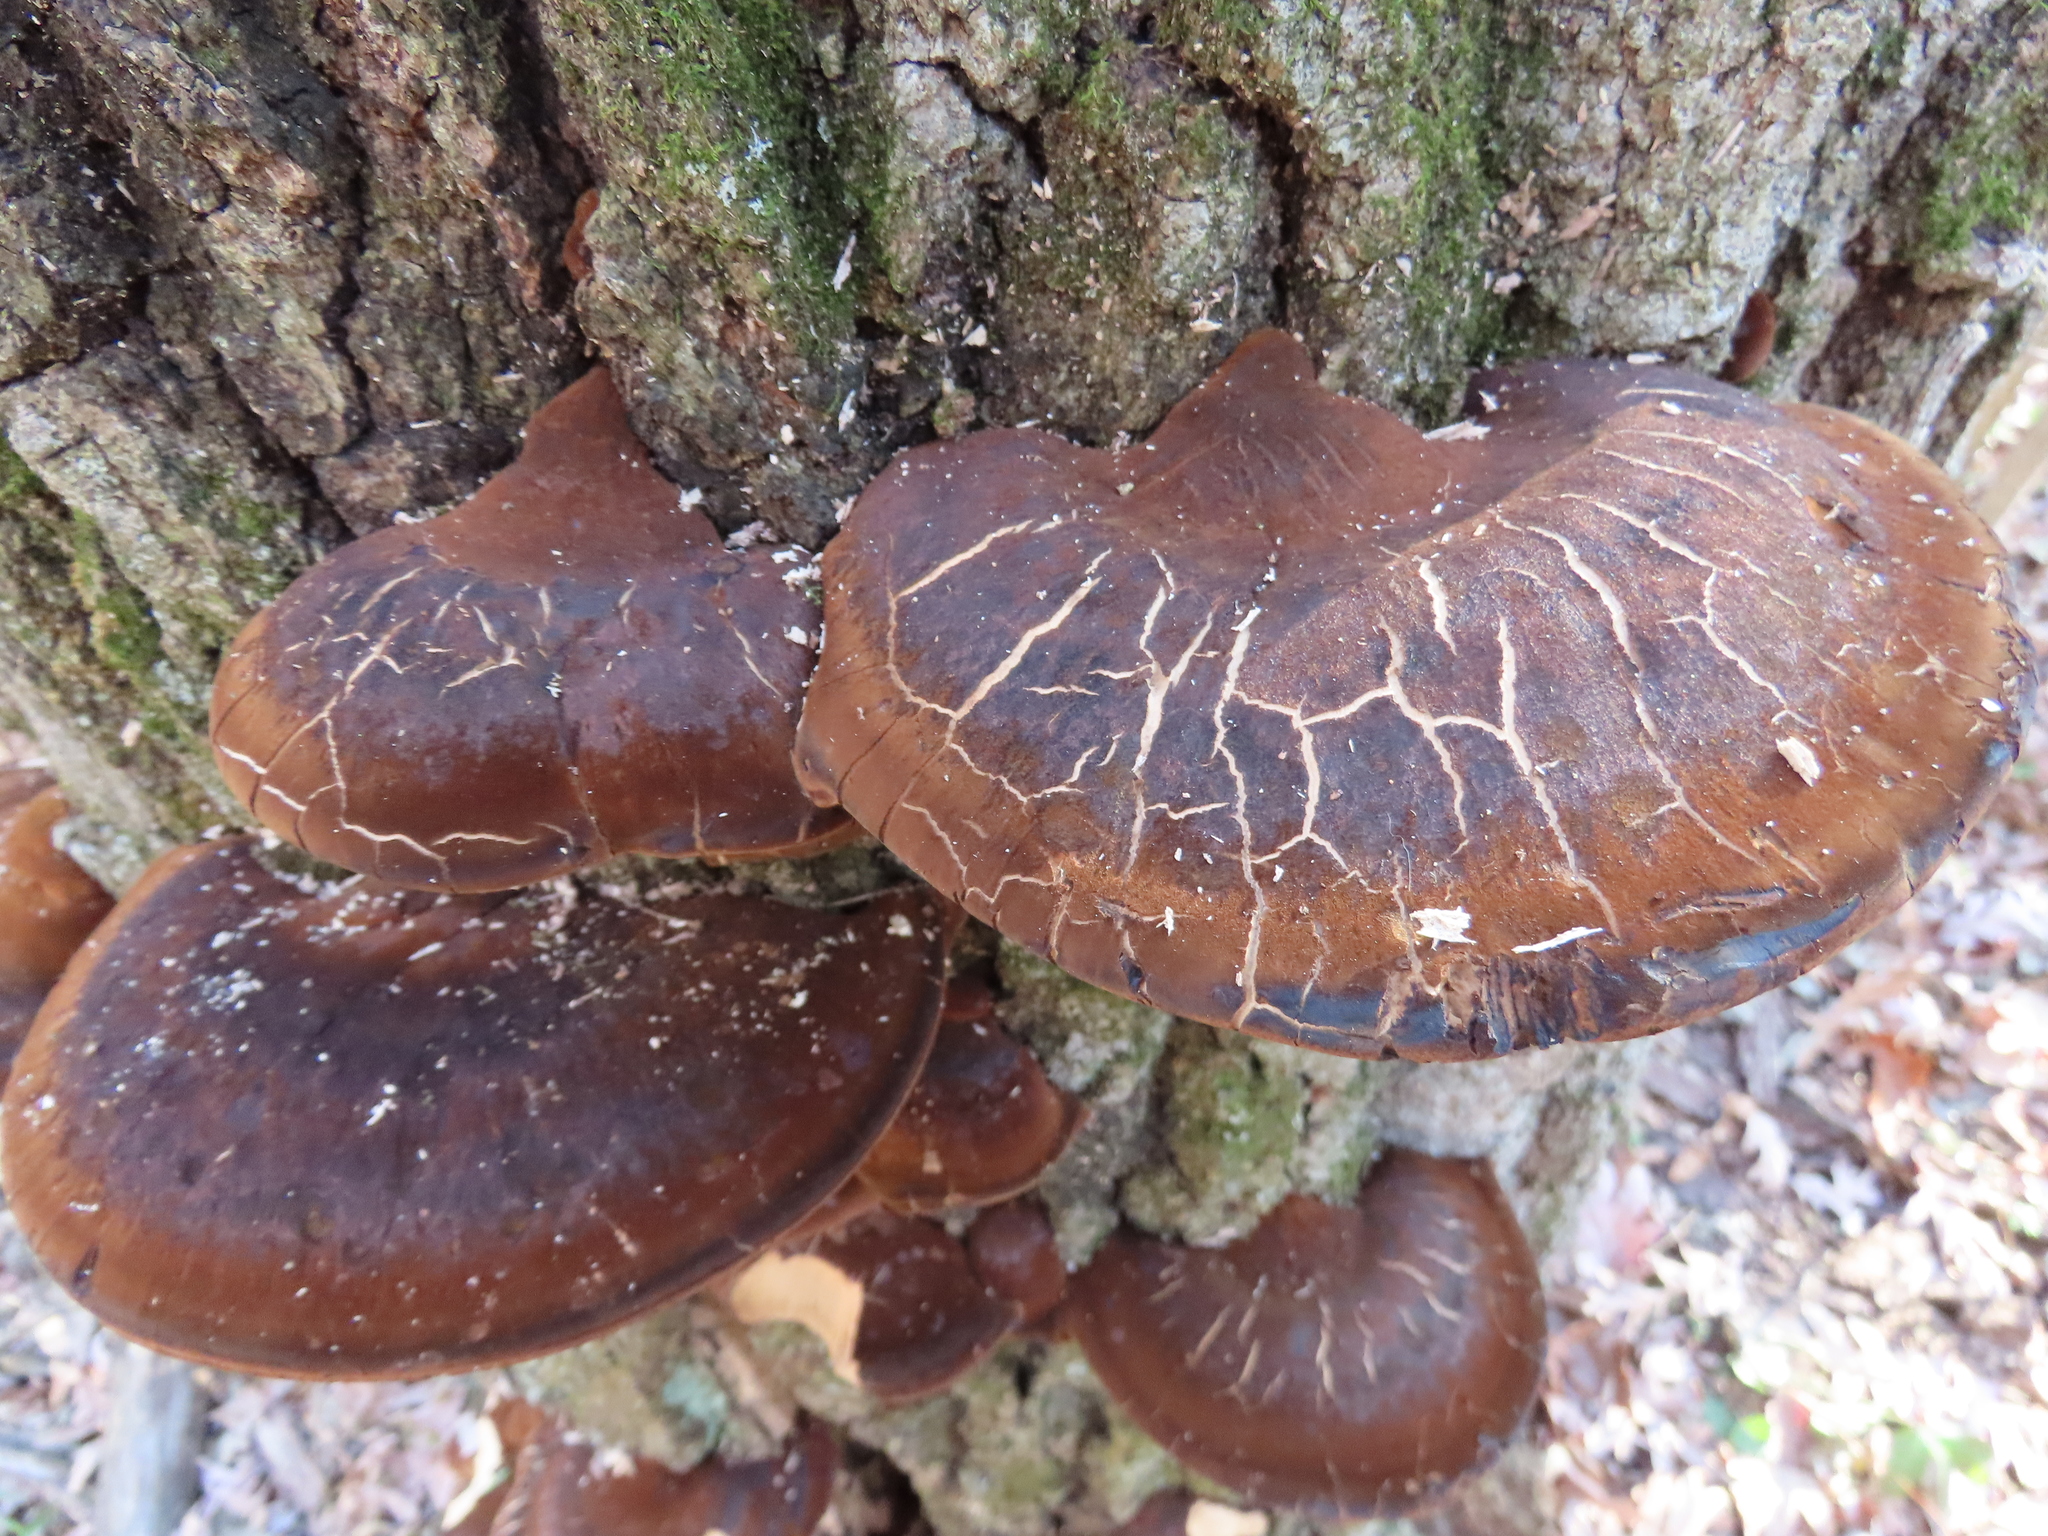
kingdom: Fungi
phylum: Basidiomycota
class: Agaricomycetes
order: Polyporales
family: Ischnodermataceae
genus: Ischnoderma
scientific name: Ischnoderma resinosum
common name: Resinous polypore
